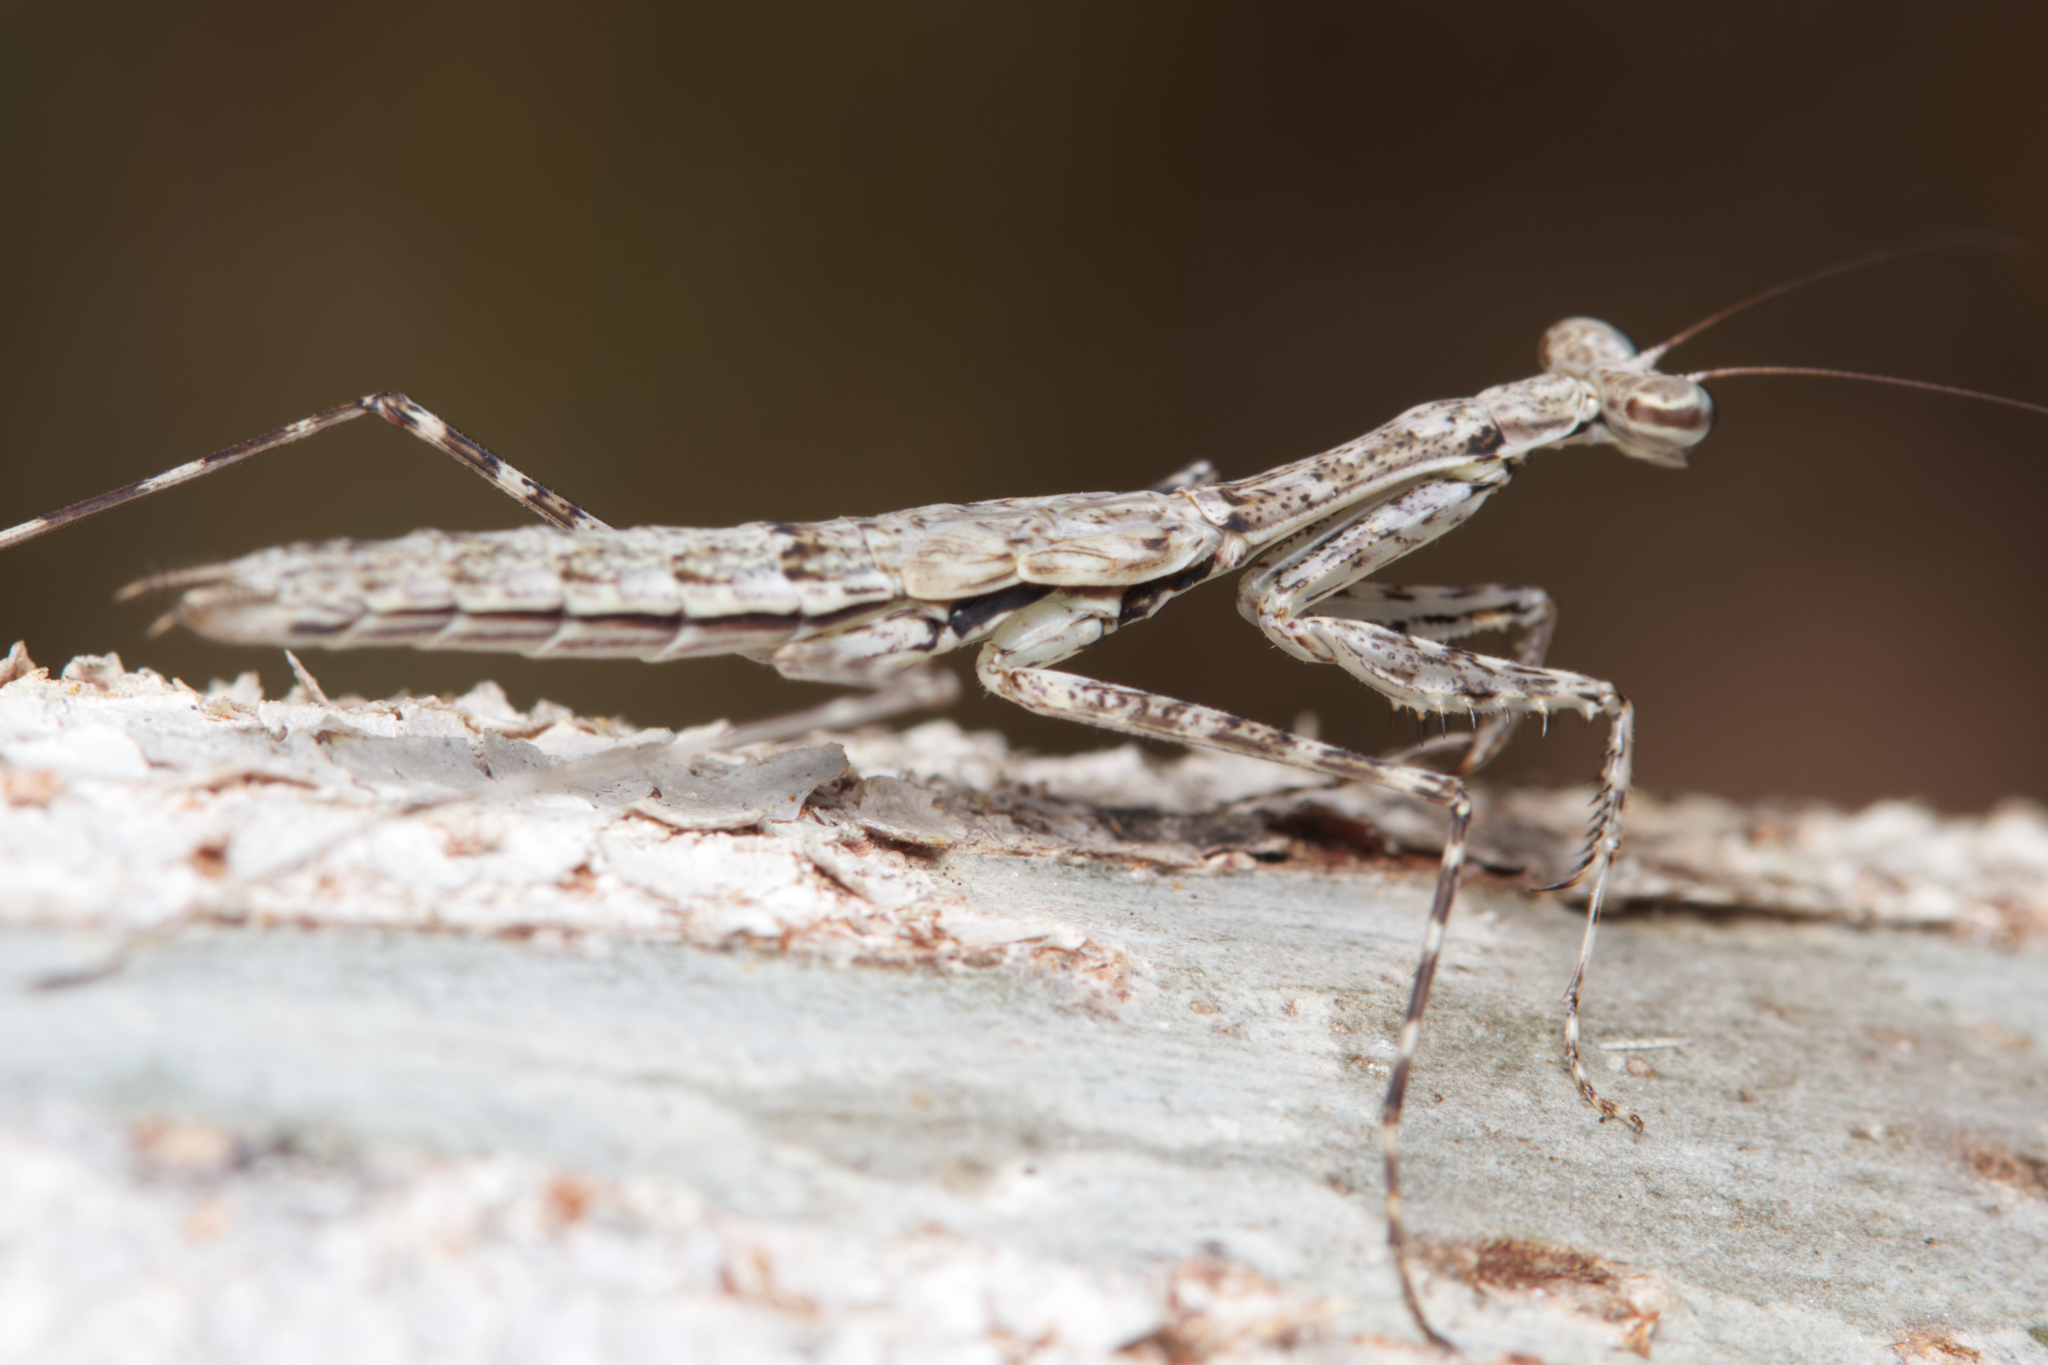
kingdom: Animalia
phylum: Arthropoda
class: Insecta
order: Mantodea
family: Nanomantidae
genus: Ciulfina
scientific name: Ciulfina baldersoni
